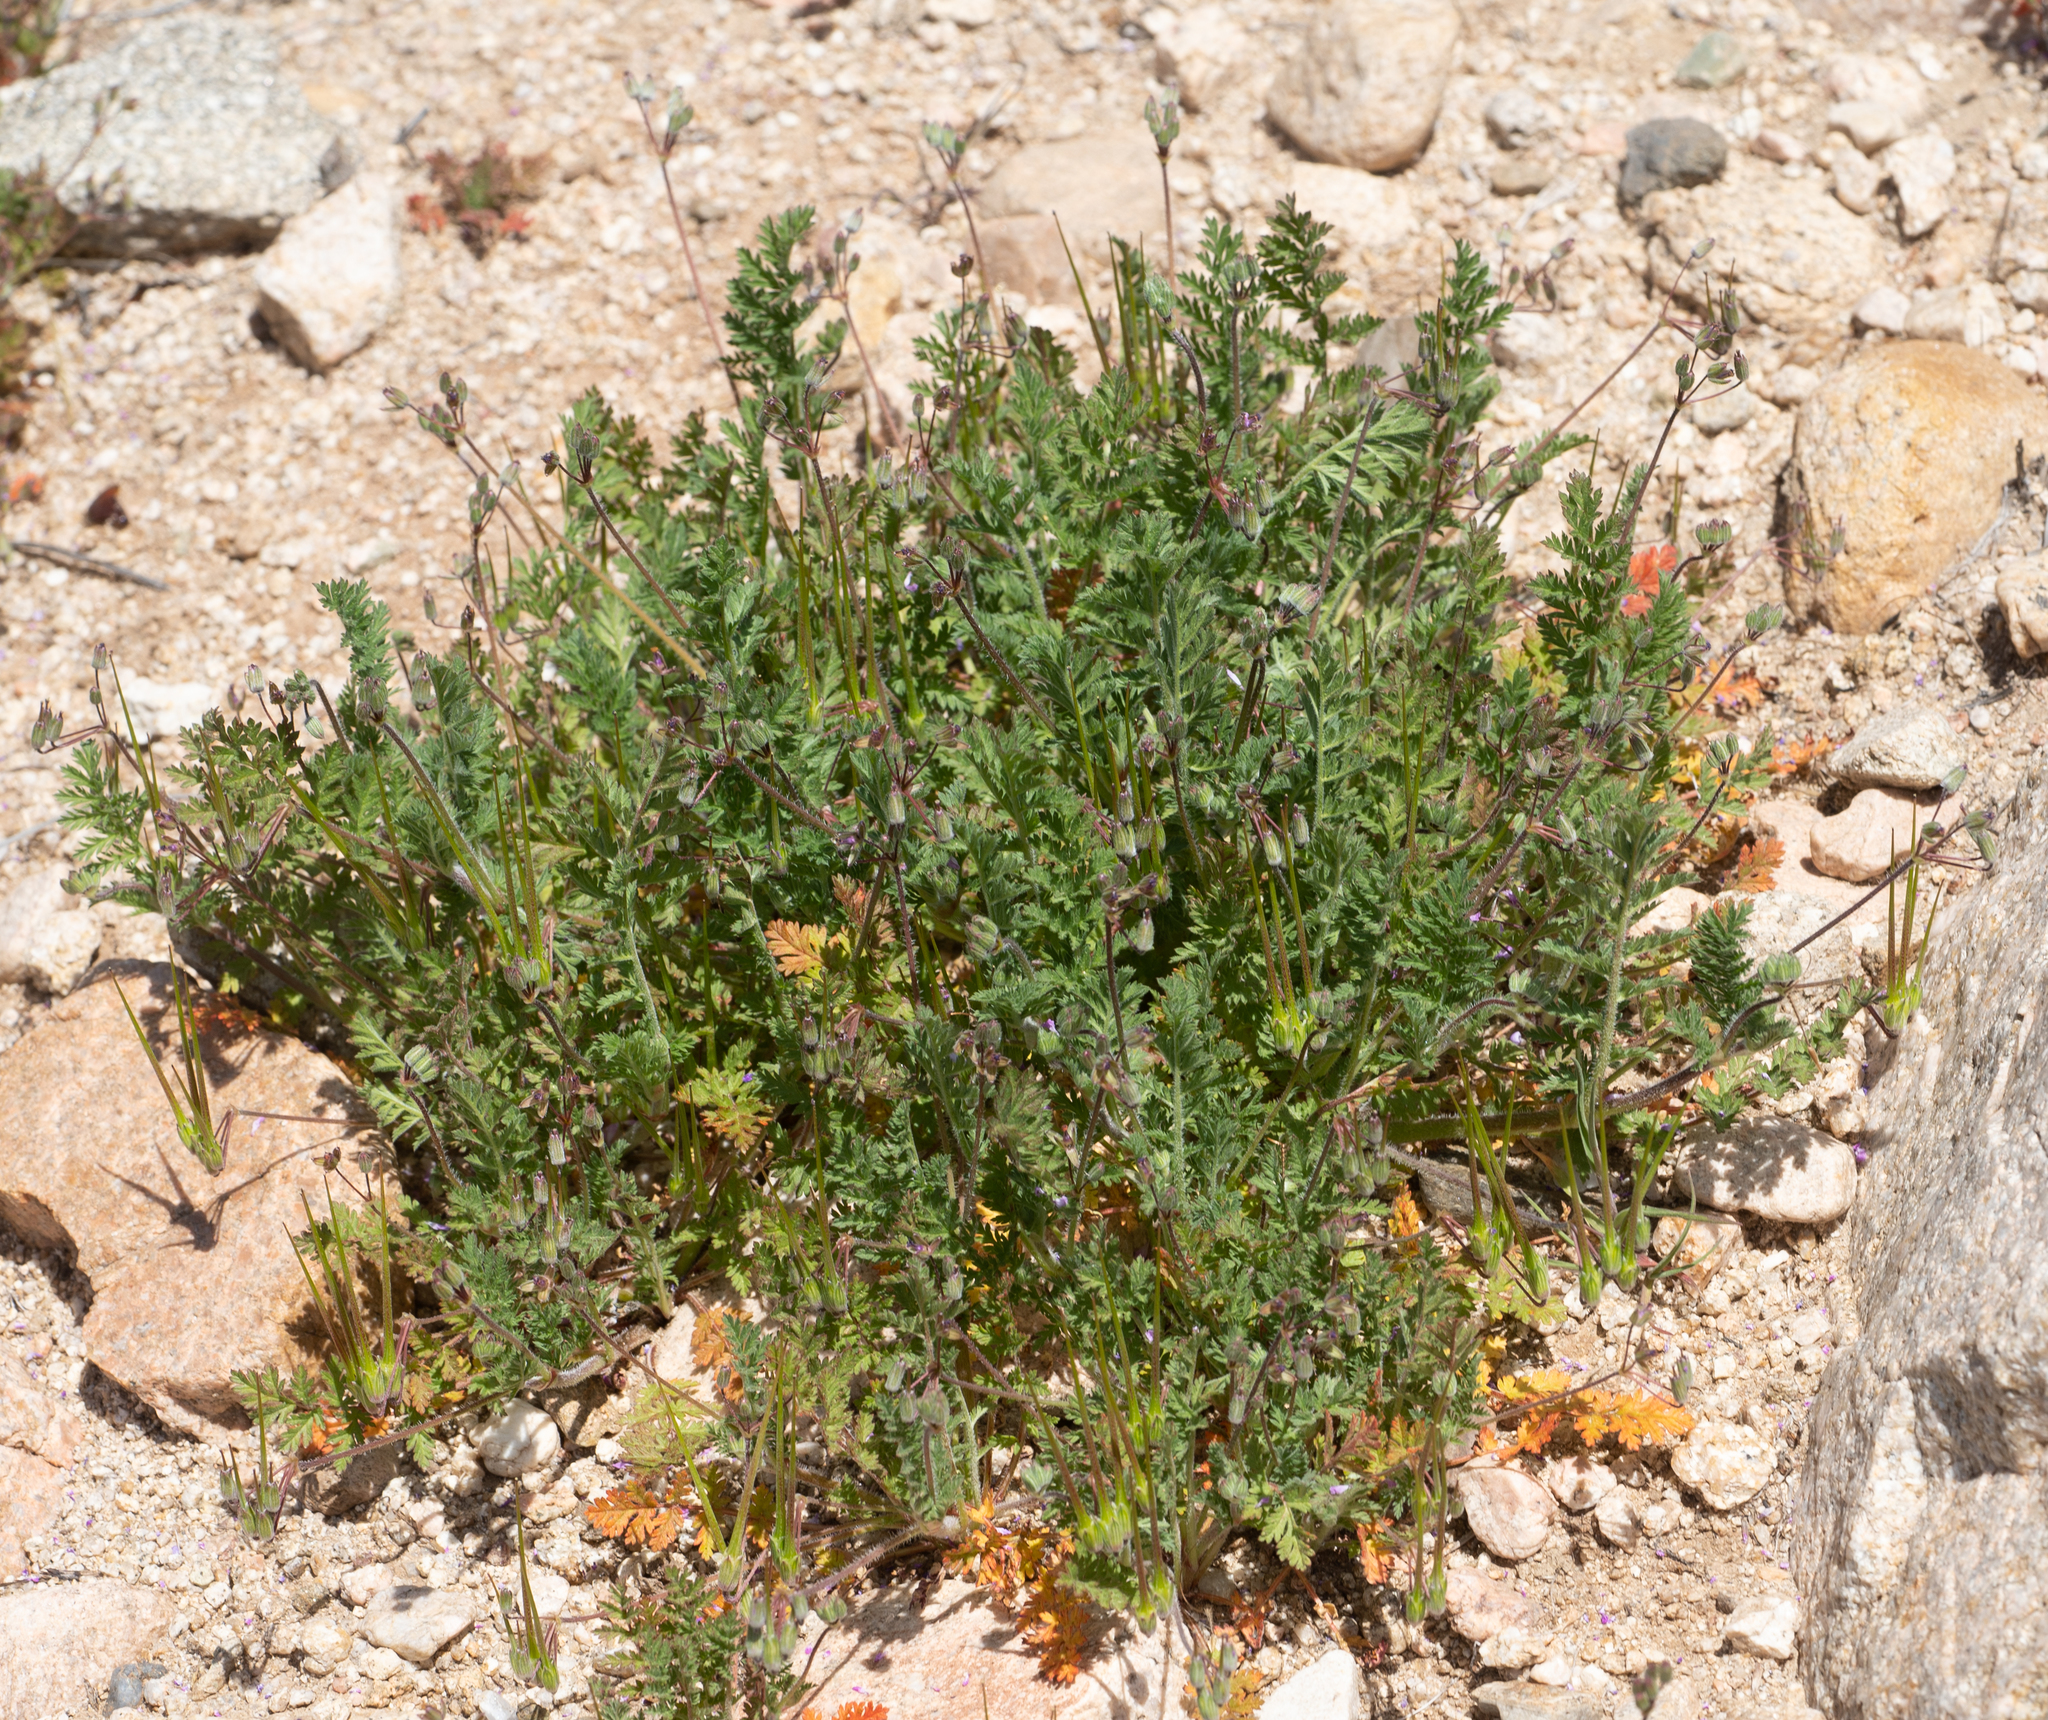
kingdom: Plantae
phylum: Tracheophyta
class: Magnoliopsida
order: Geraniales
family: Geraniaceae
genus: Erodium
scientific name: Erodium cicutarium
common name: Common stork's-bill
